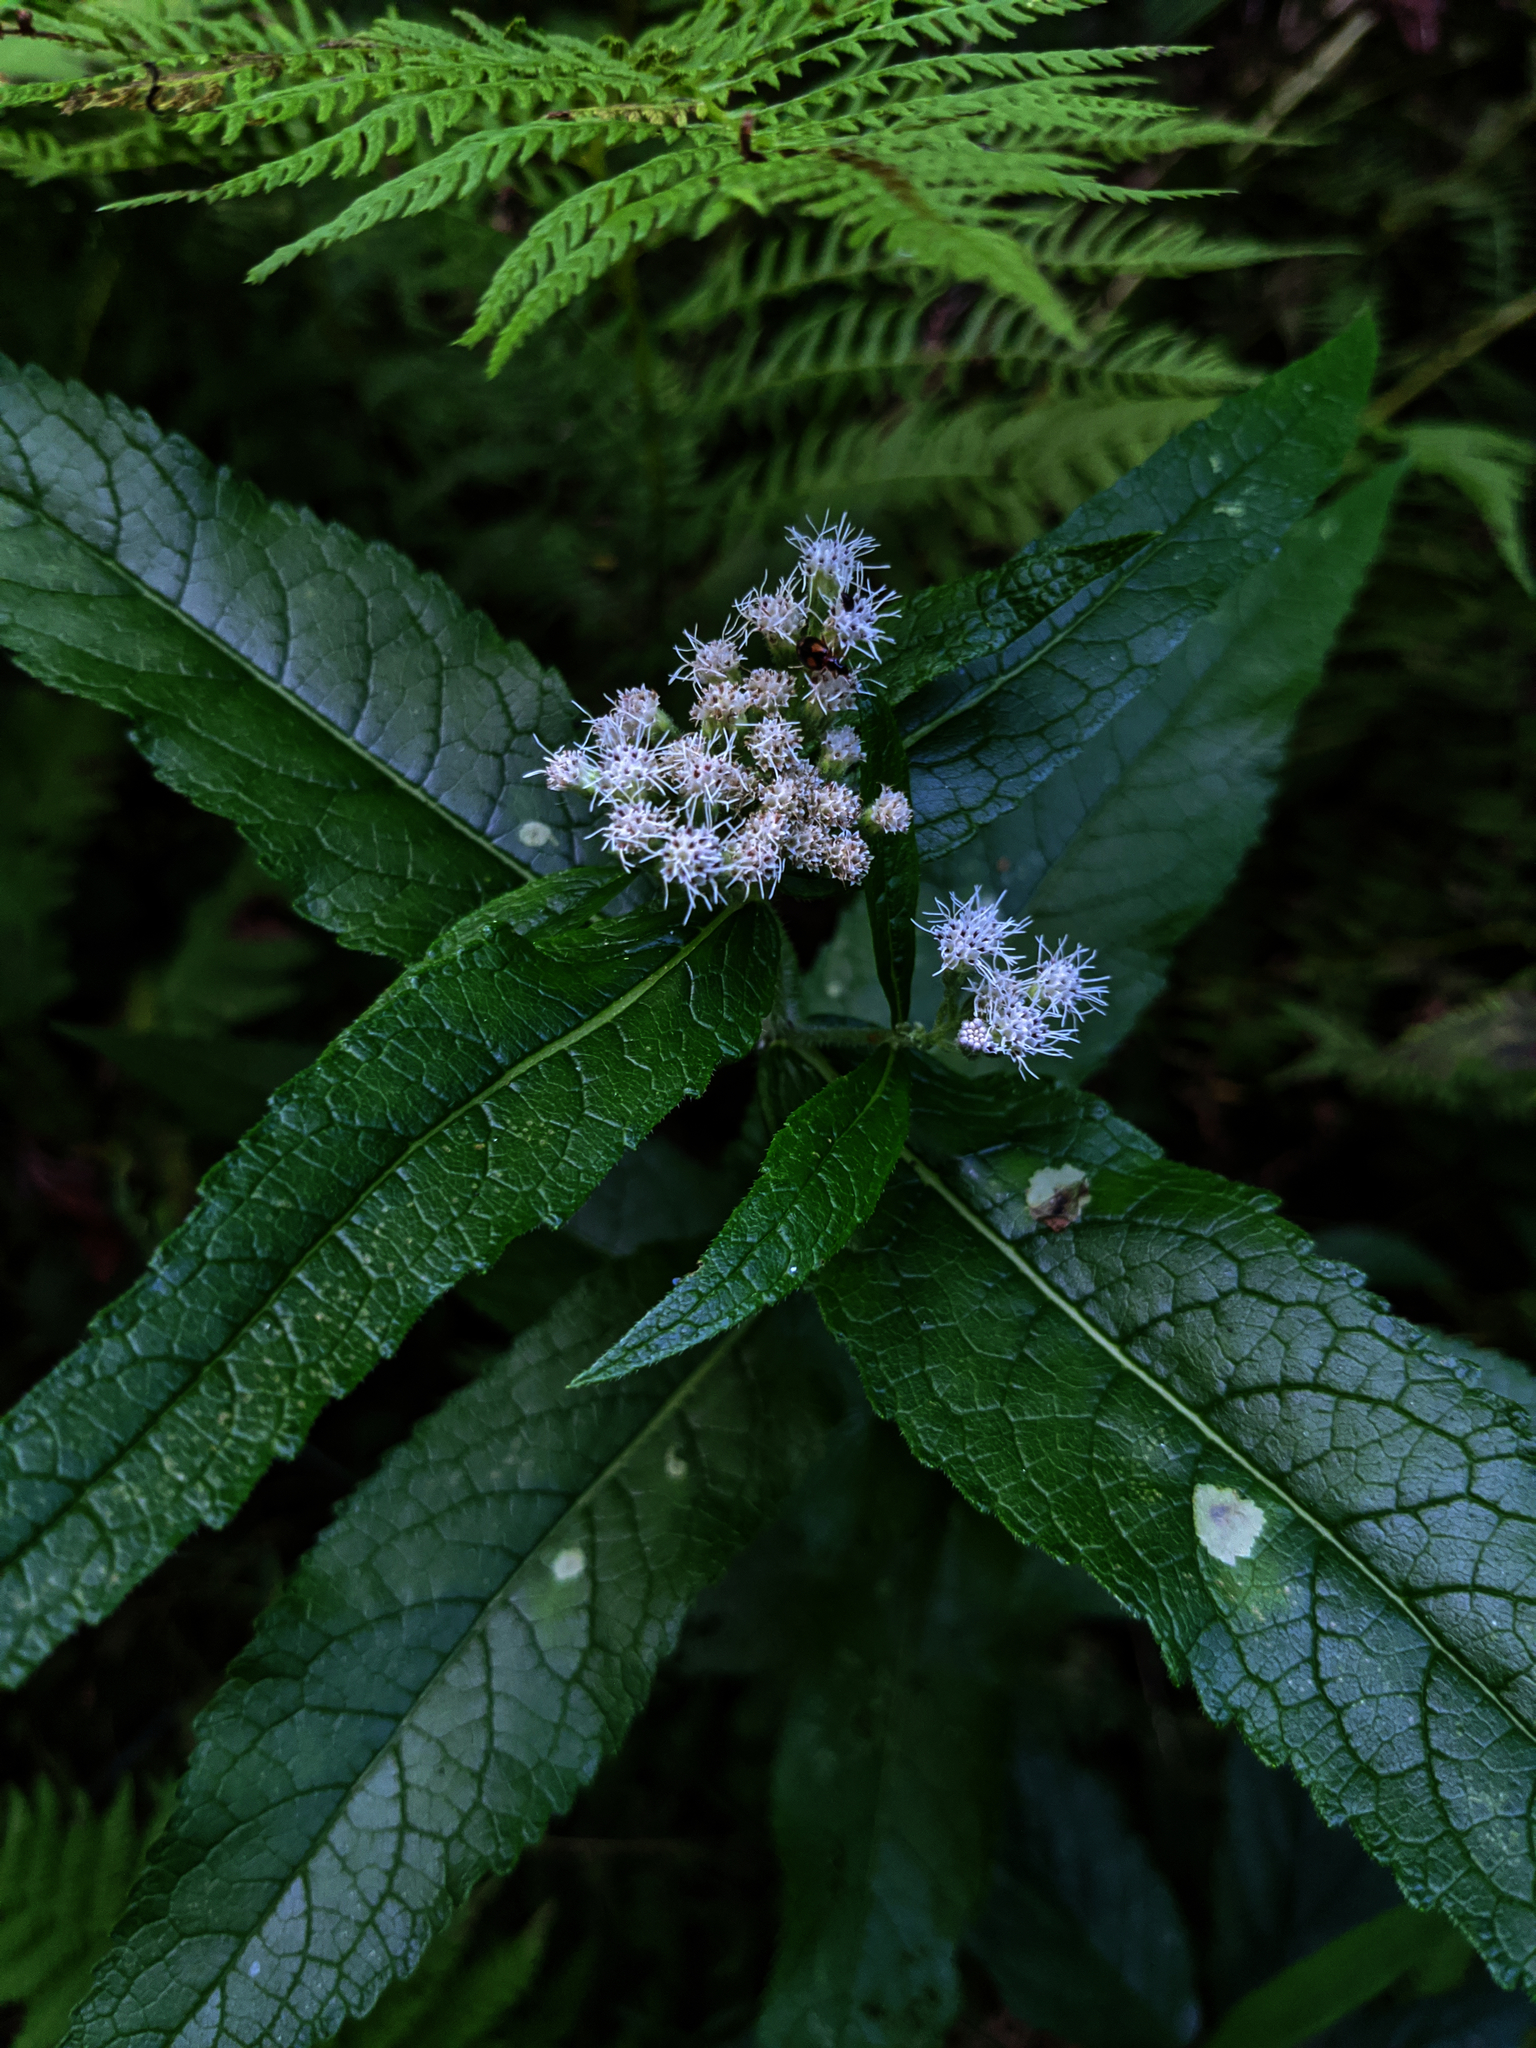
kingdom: Plantae
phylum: Tracheophyta
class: Magnoliopsida
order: Asterales
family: Asteraceae
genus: Eupatorium
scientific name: Eupatorium perfoliatum
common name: Boneset
